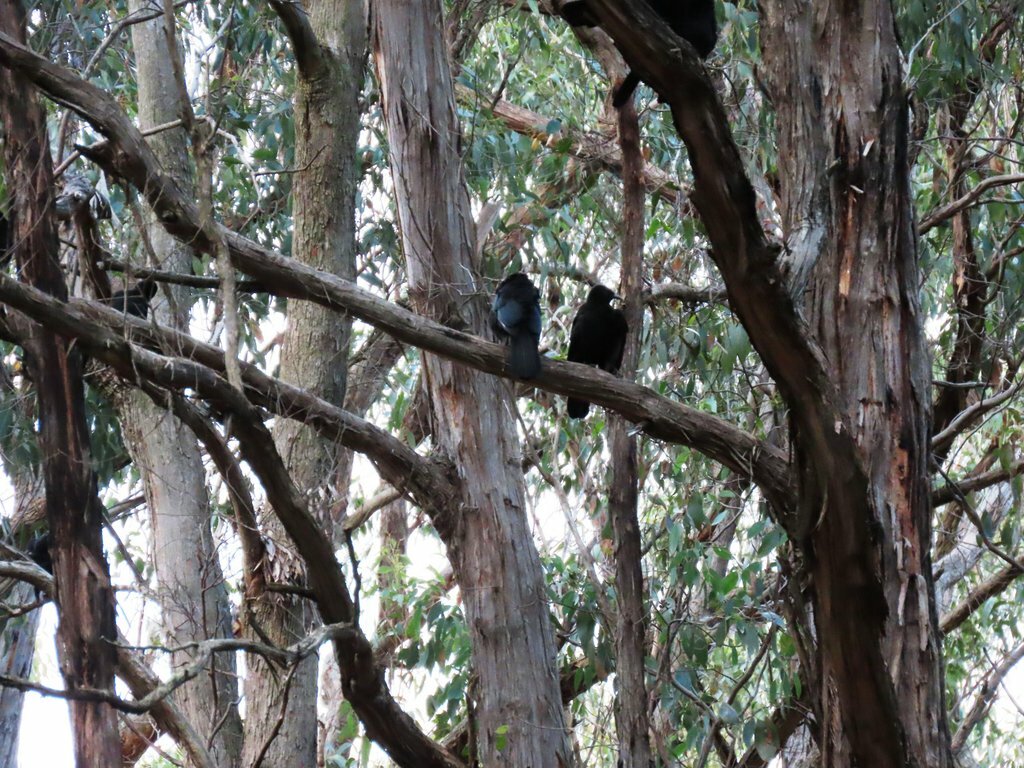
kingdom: Animalia
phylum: Chordata
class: Aves
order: Passeriformes
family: Corcoracidae
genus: Corcorax
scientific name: Corcorax melanoramphos
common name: White-winged chough
